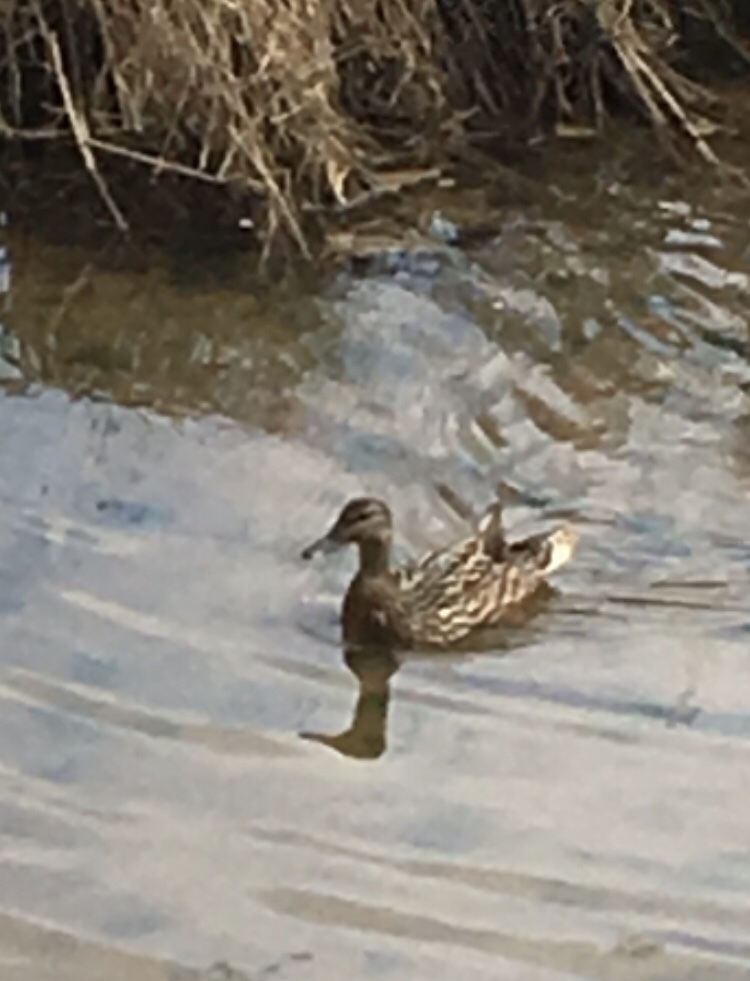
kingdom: Animalia
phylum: Chordata
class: Aves
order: Anseriformes
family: Anatidae
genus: Anas
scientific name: Anas platyrhynchos
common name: Mallard
